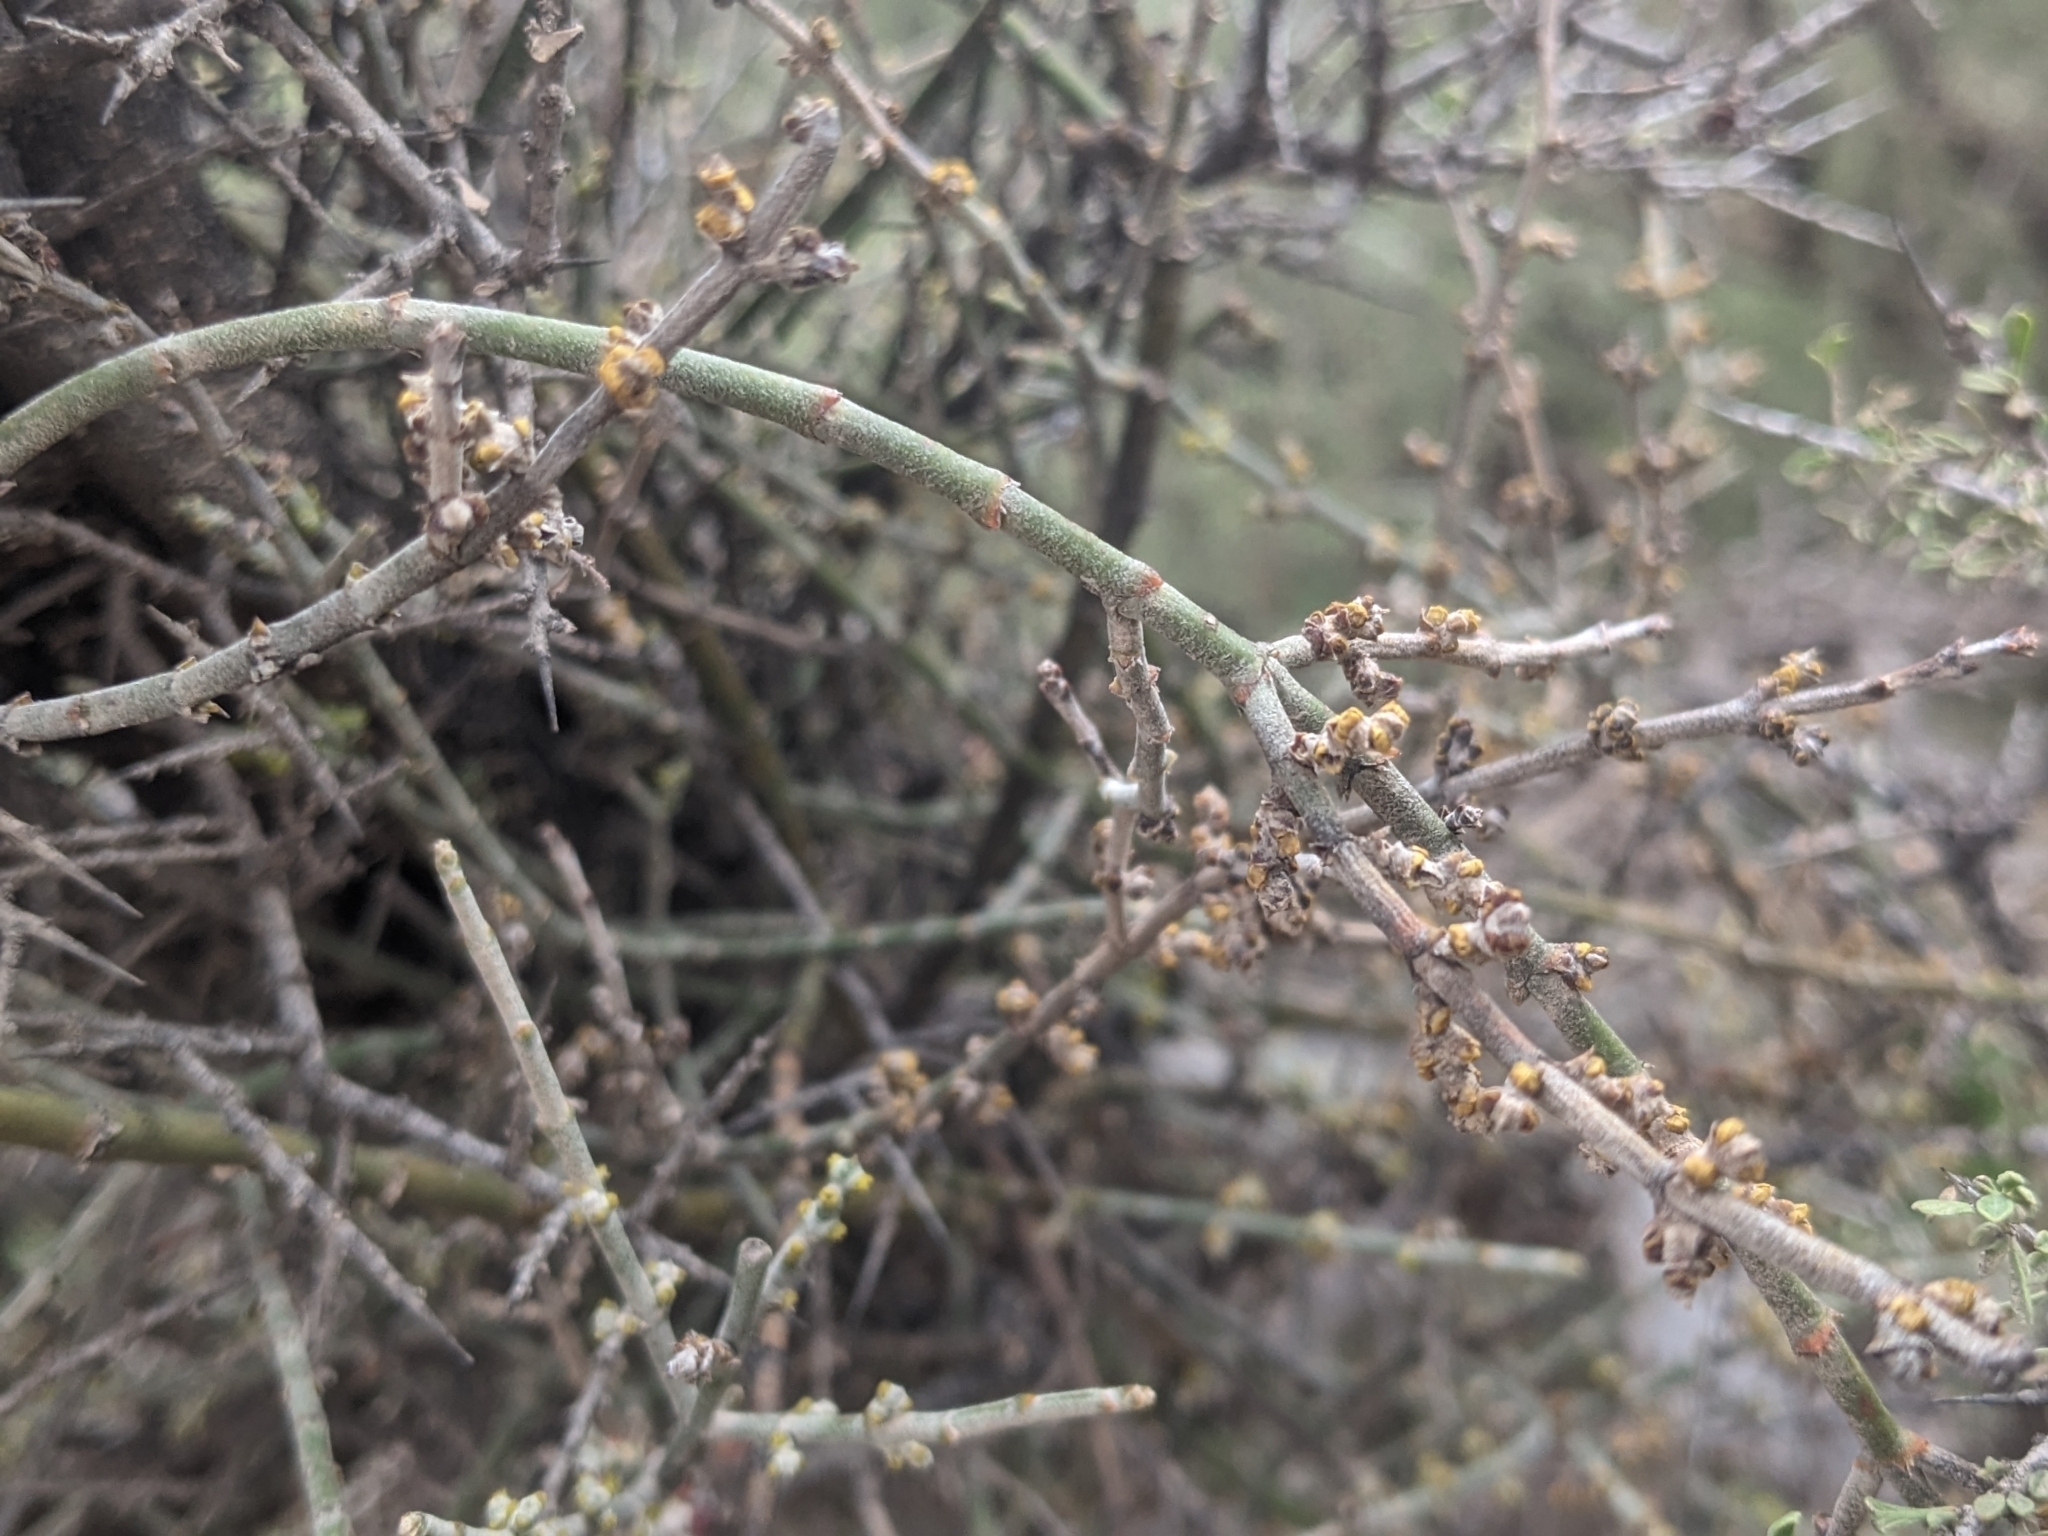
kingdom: Plantae
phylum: Tracheophyta
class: Magnoliopsida
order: Santalales
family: Viscaceae
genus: Phoradendron
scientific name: Phoradendron californicum
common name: Acacia mistletoe
